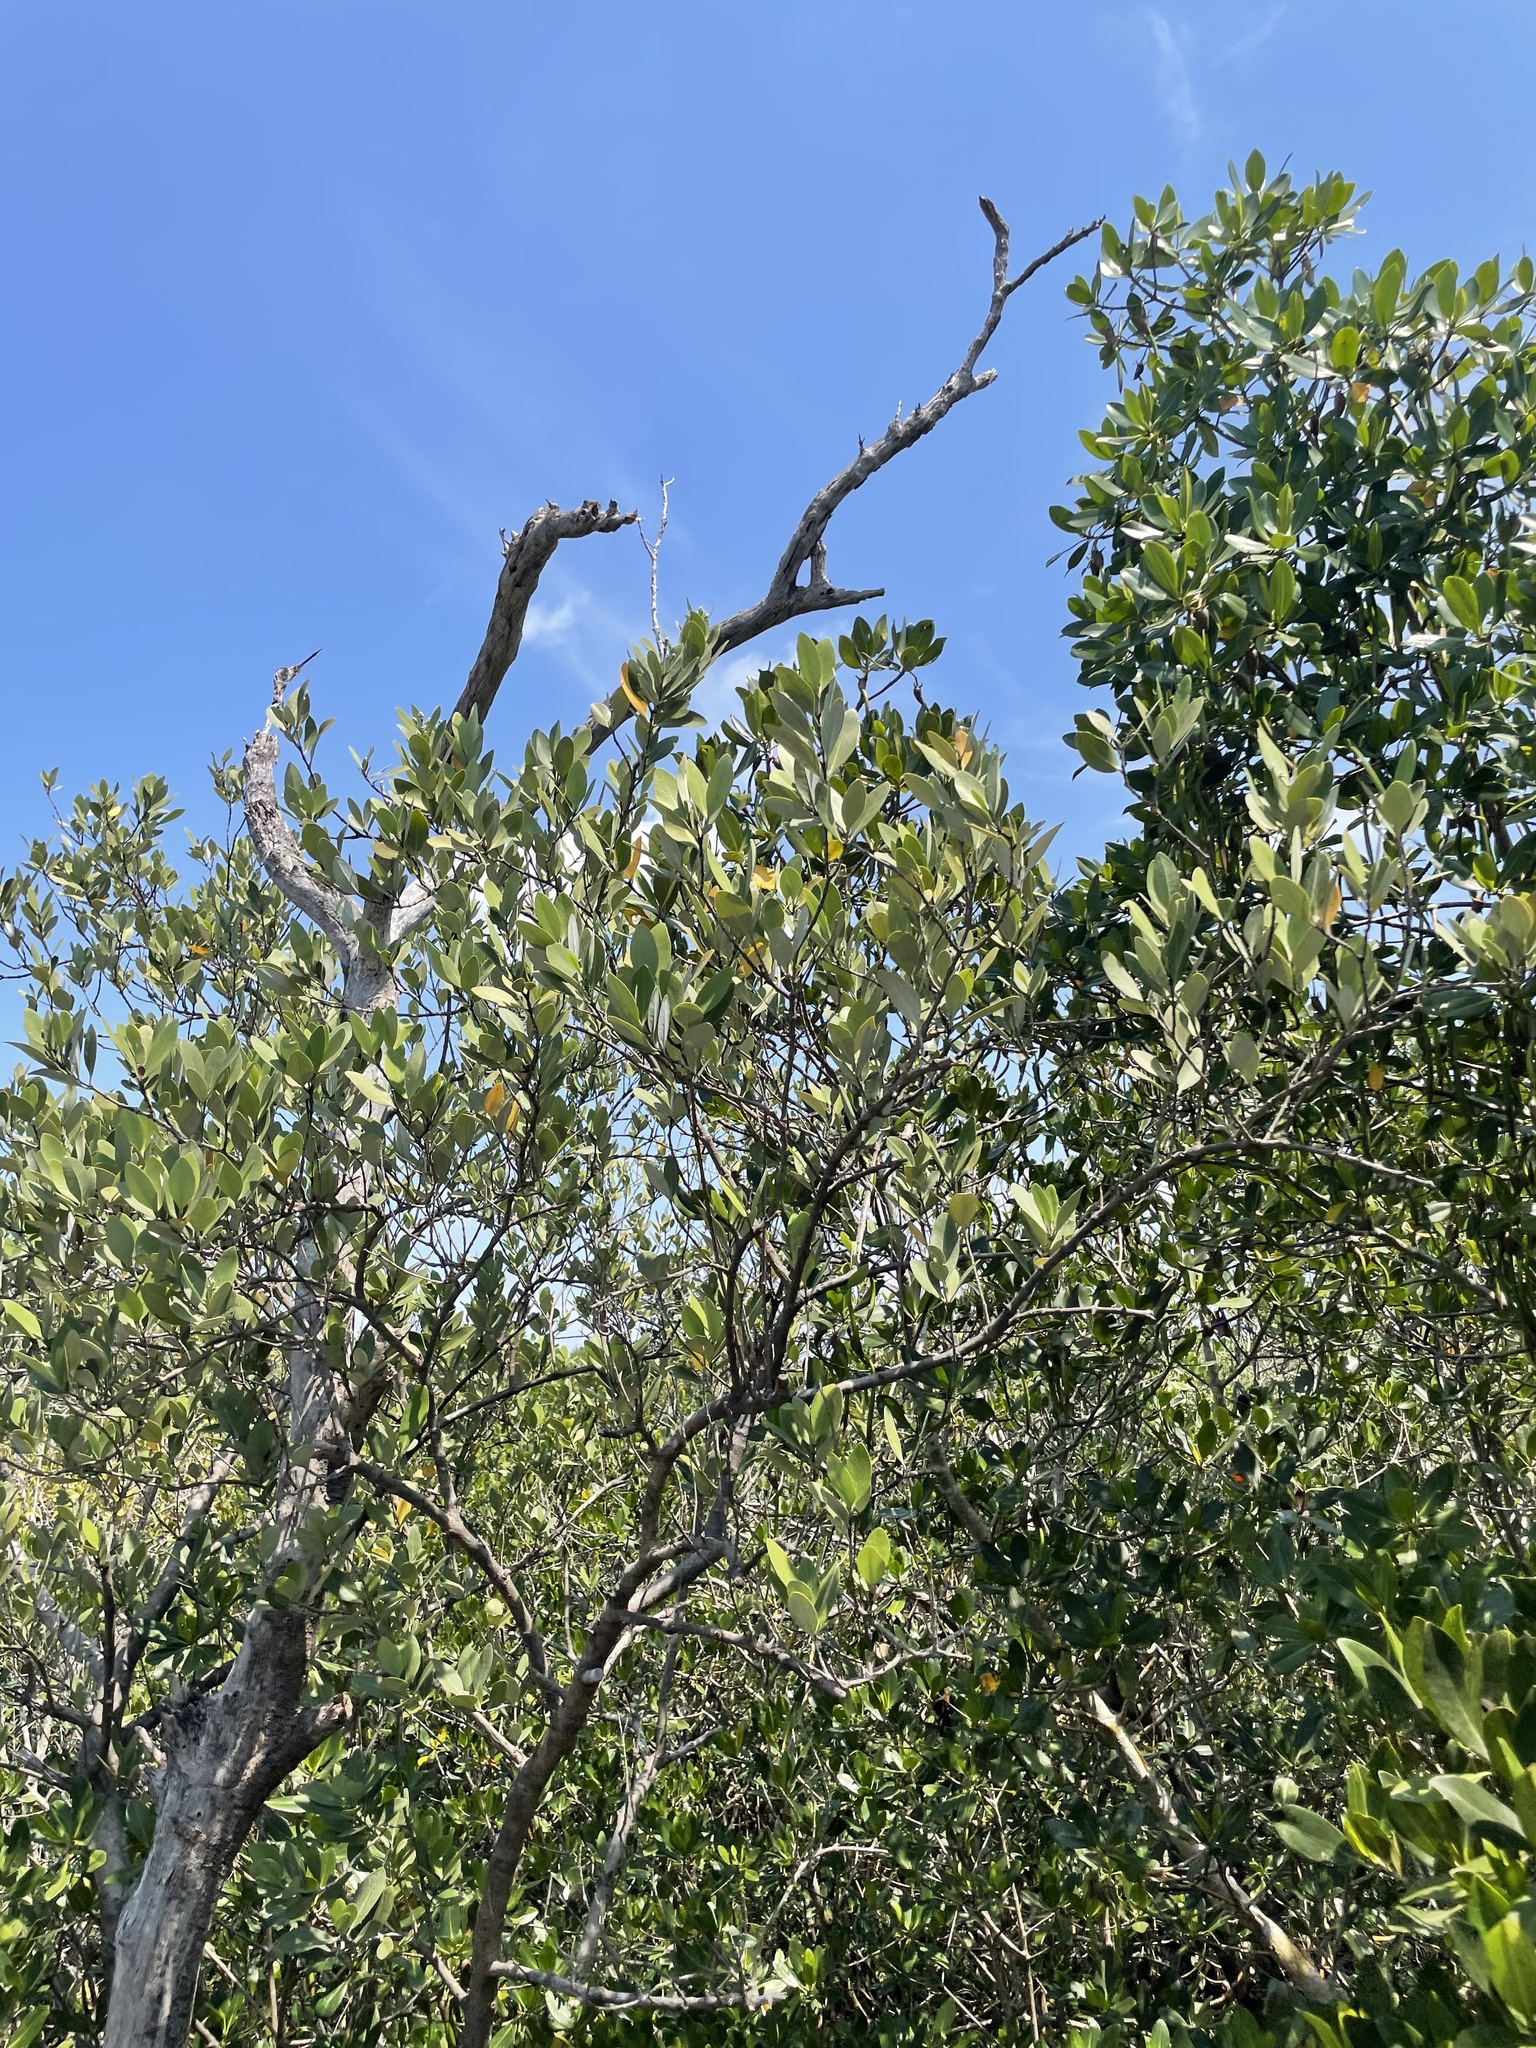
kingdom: Plantae
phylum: Tracheophyta
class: Magnoliopsida
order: Lamiales
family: Acanthaceae
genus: Avicennia
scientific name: Avicennia germinans
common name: Black mangrove
